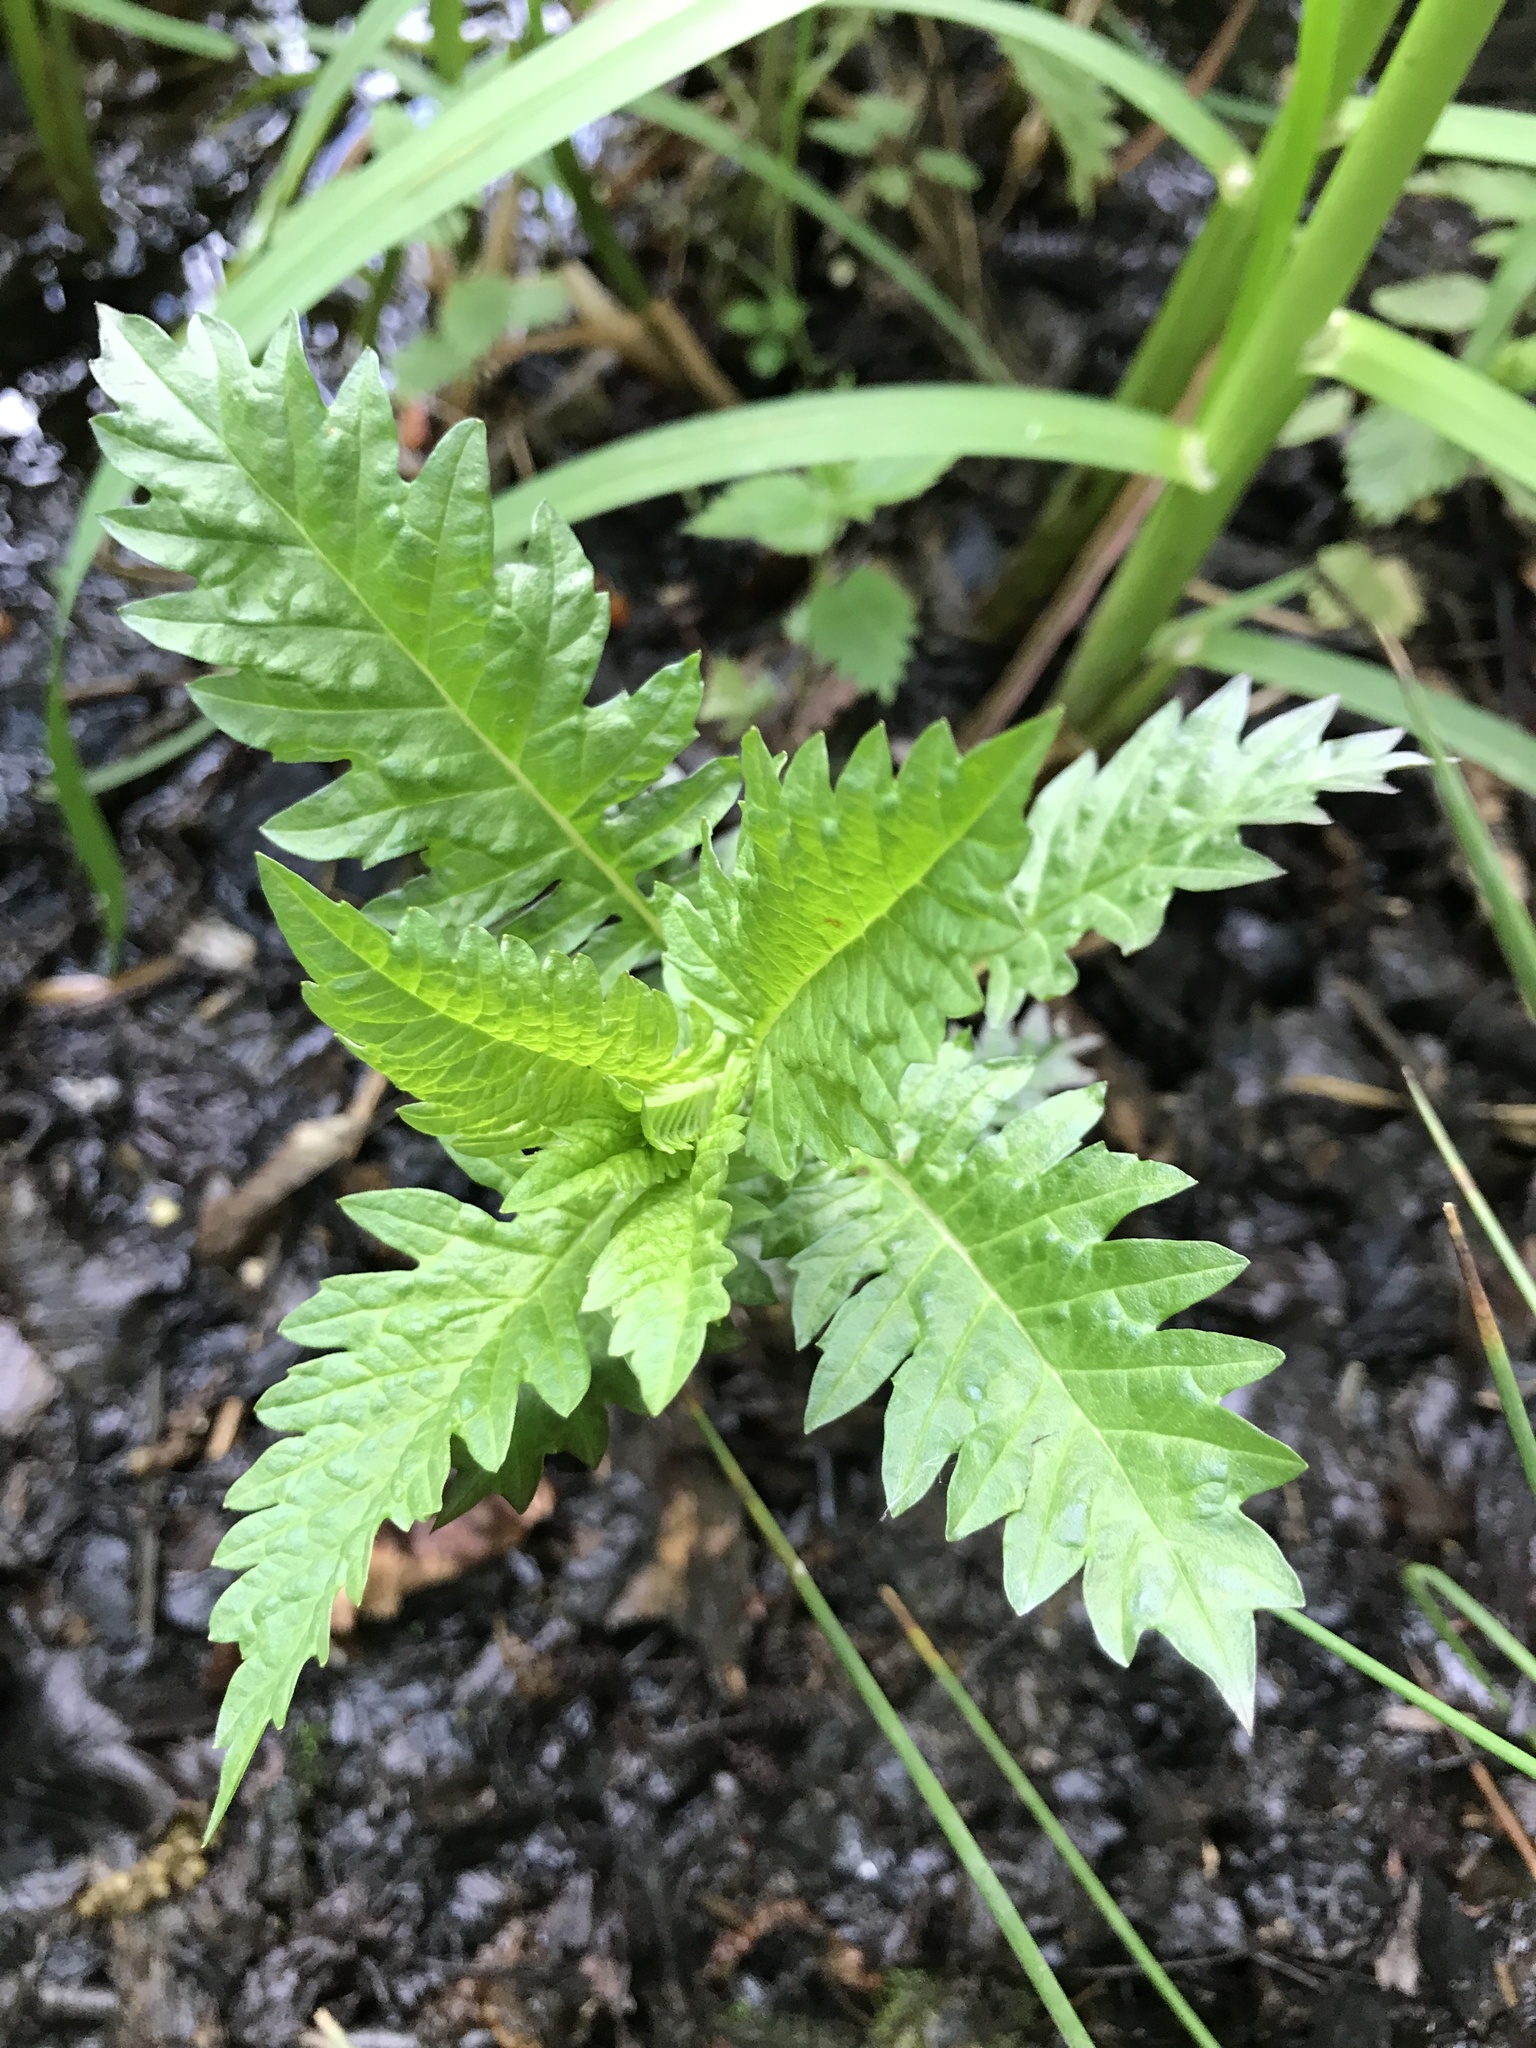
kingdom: Plantae
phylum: Tracheophyta
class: Magnoliopsida
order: Lamiales
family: Lamiaceae
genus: Lycopus
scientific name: Lycopus europaeus
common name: European bugleweed
